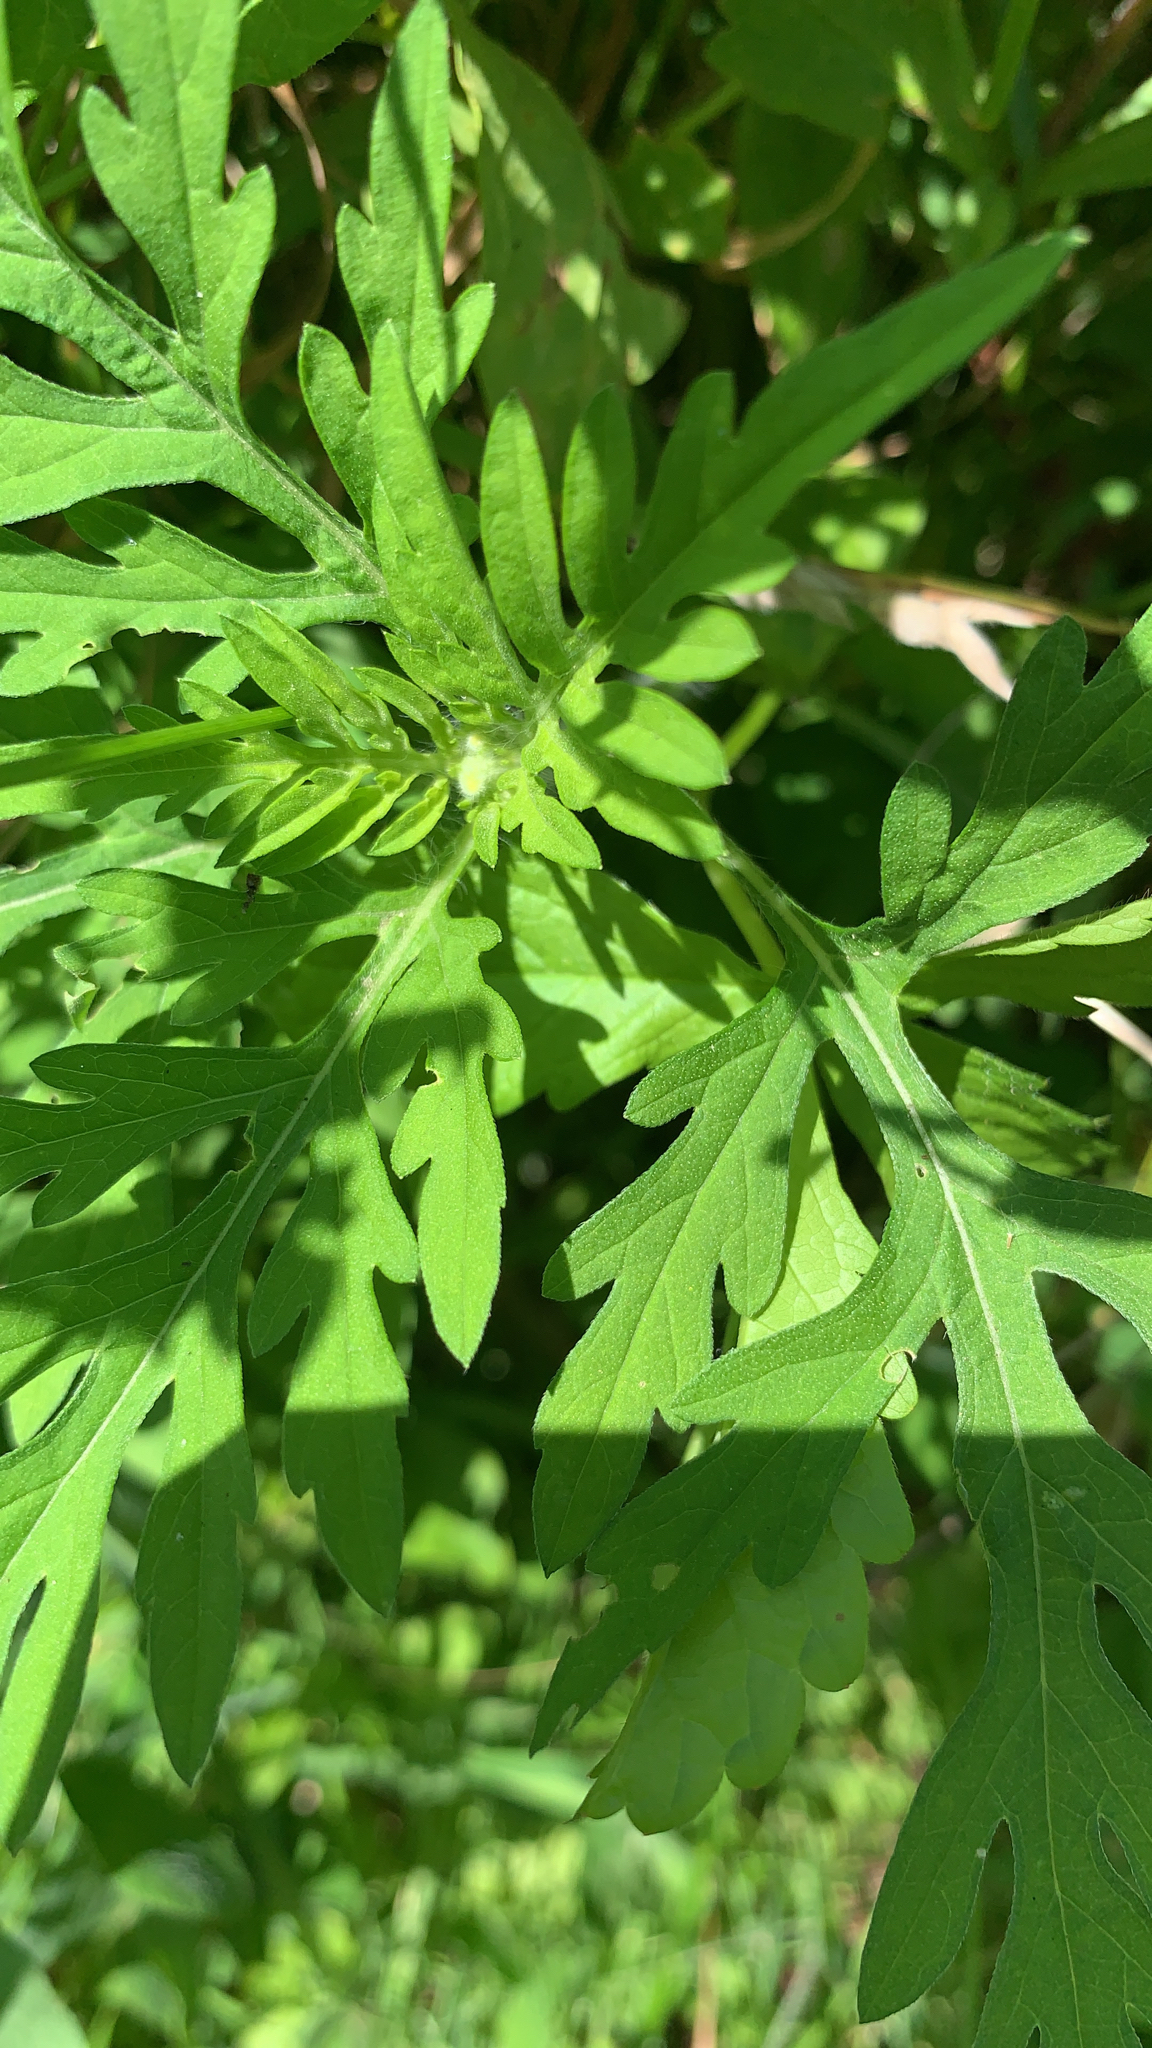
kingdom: Plantae
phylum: Tracheophyta
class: Magnoliopsida
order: Asterales
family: Asteraceae
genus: Ambrosia
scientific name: Ambrosia artemisiifolia
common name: Annual ragweed
